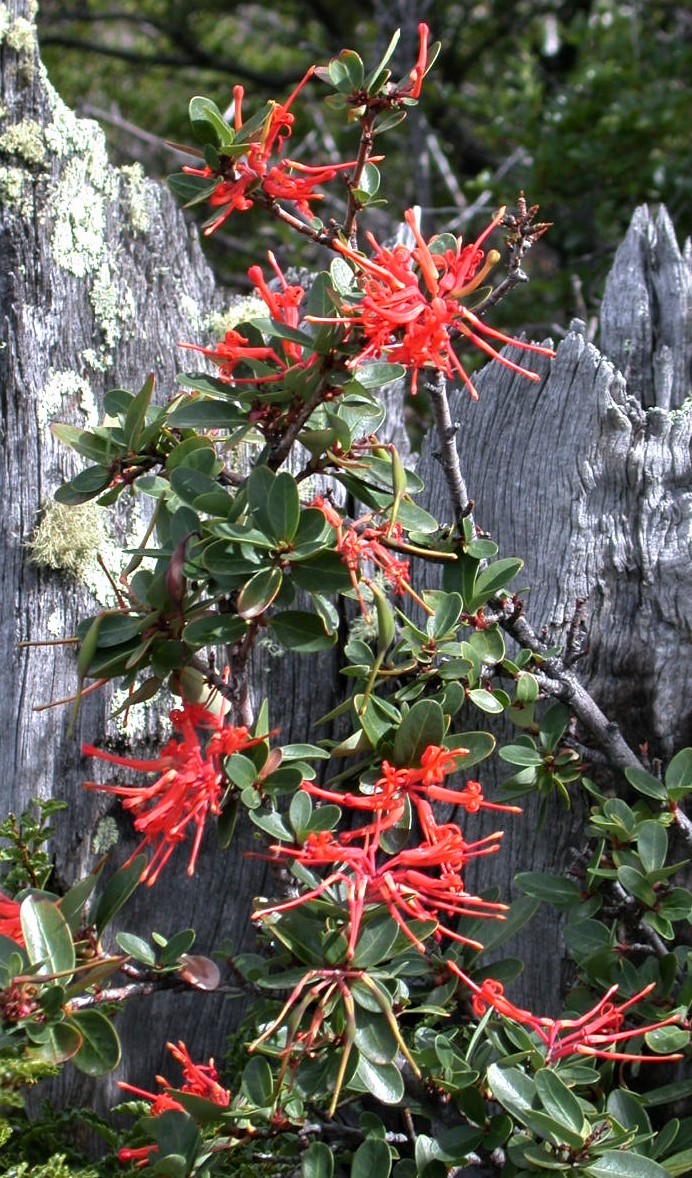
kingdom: Plantae
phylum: Tracheophyta
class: Magnoliopsida
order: Proteales
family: Proteaceae
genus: Embothrium
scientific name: Embothrium coccineum
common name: Chilean firebush
